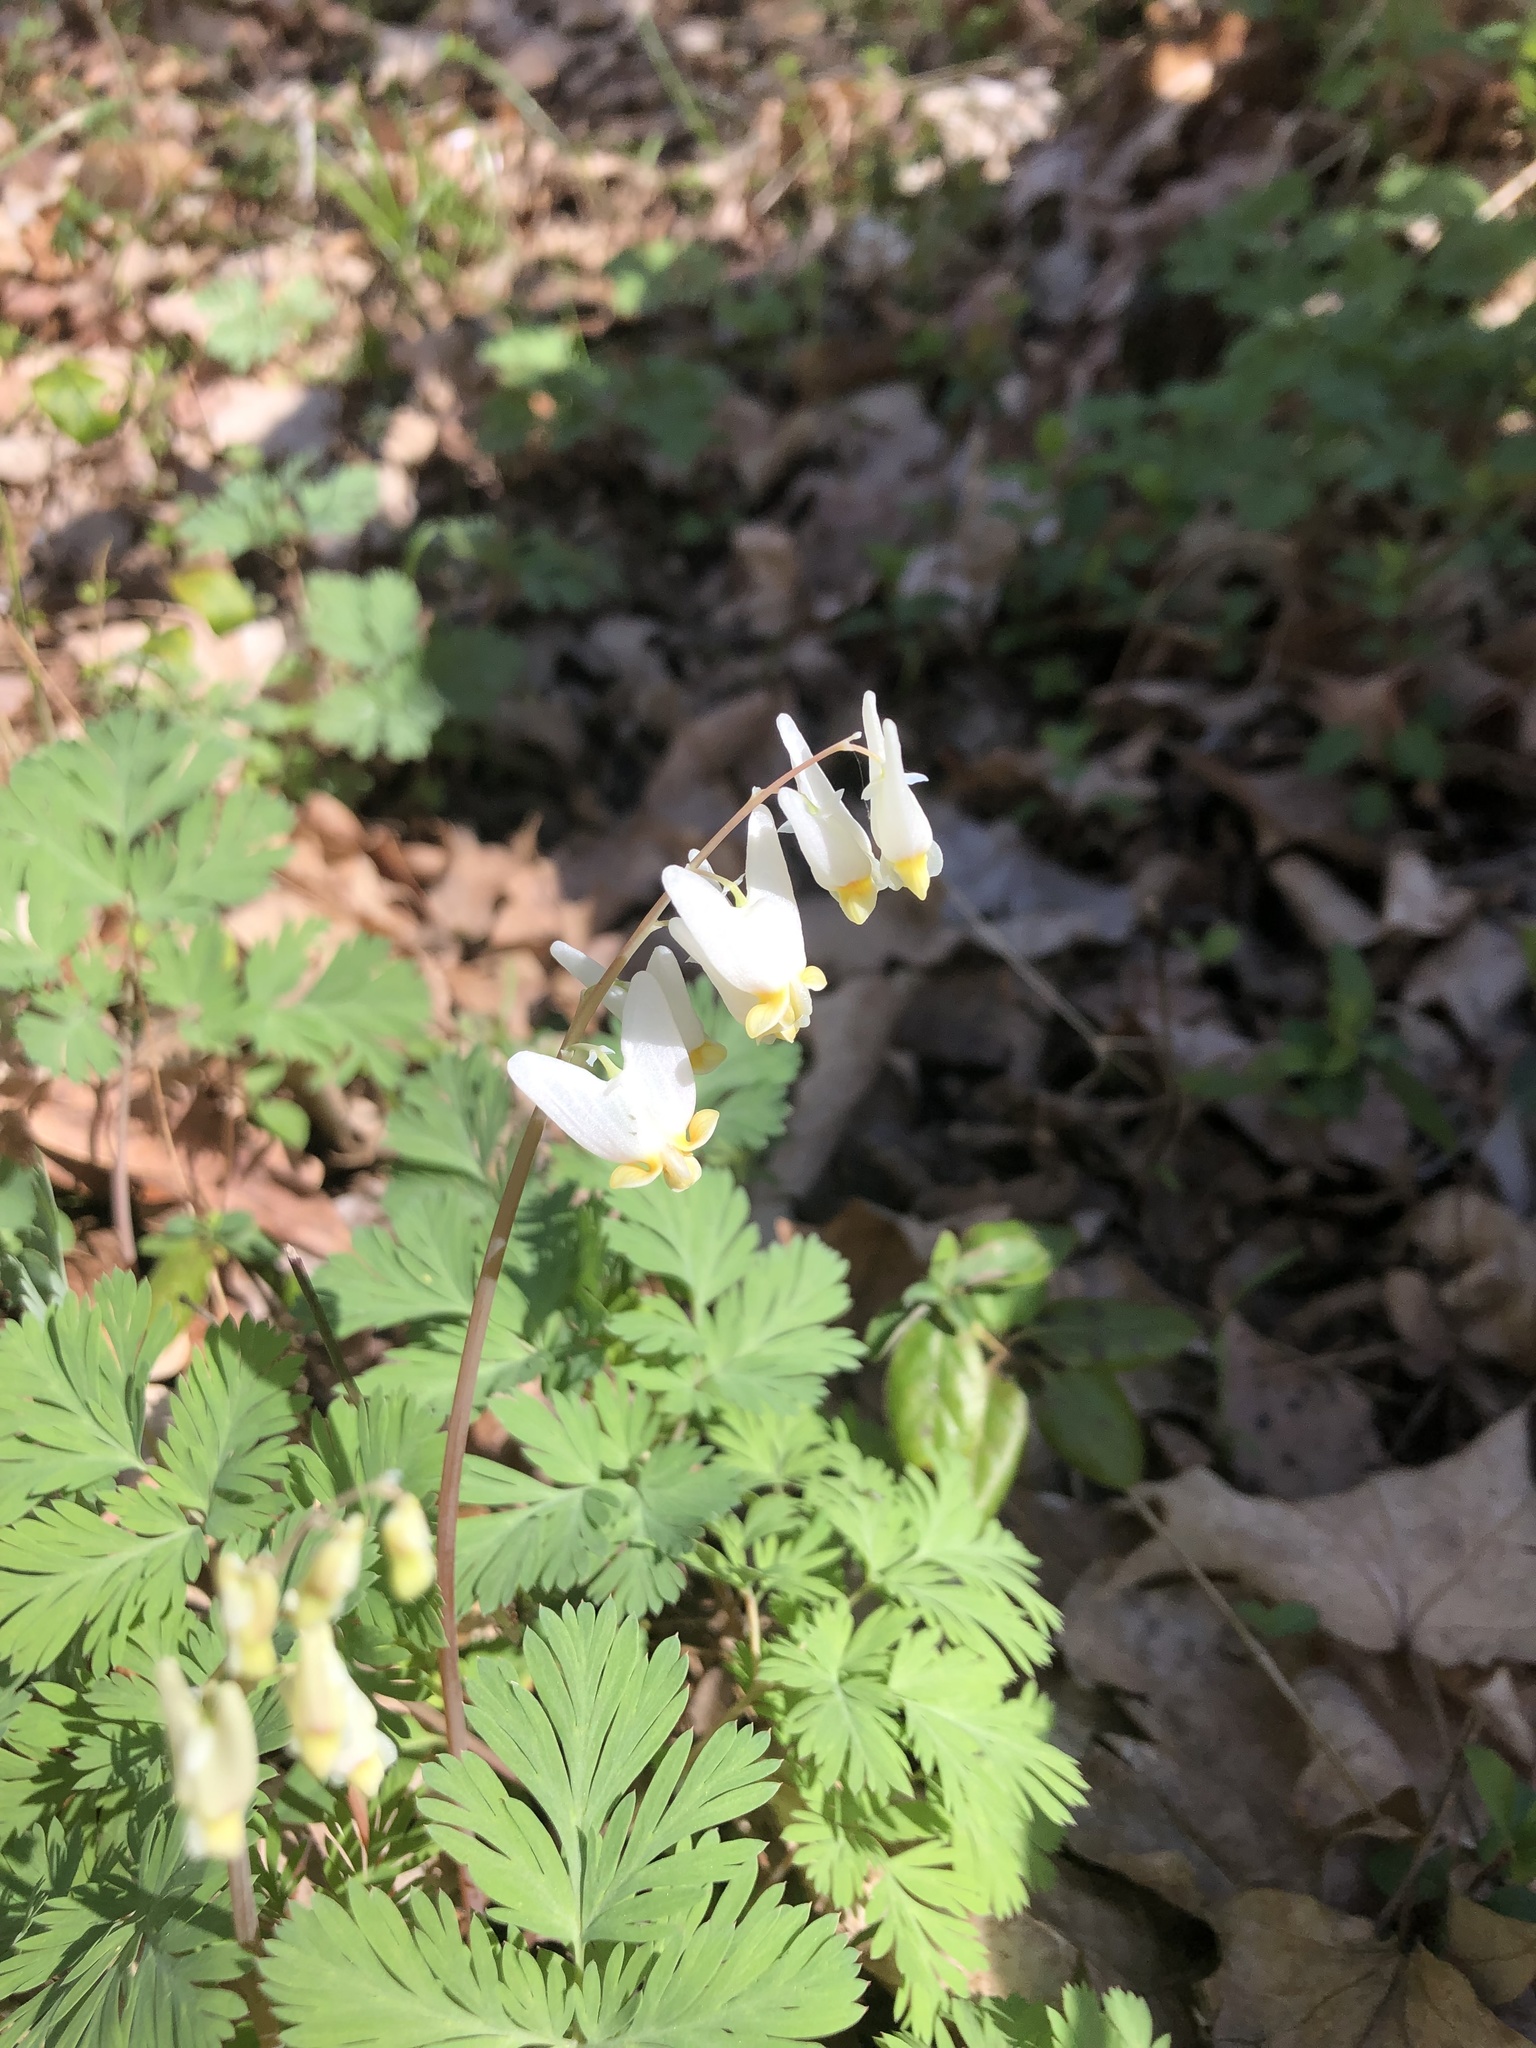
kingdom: Plantae
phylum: Tracheophyta
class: Magnoliopsida
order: Ranunculales
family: Papaveraceae
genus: Dicentra
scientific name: Dicentra cucullaria
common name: Dutchman's breeches
